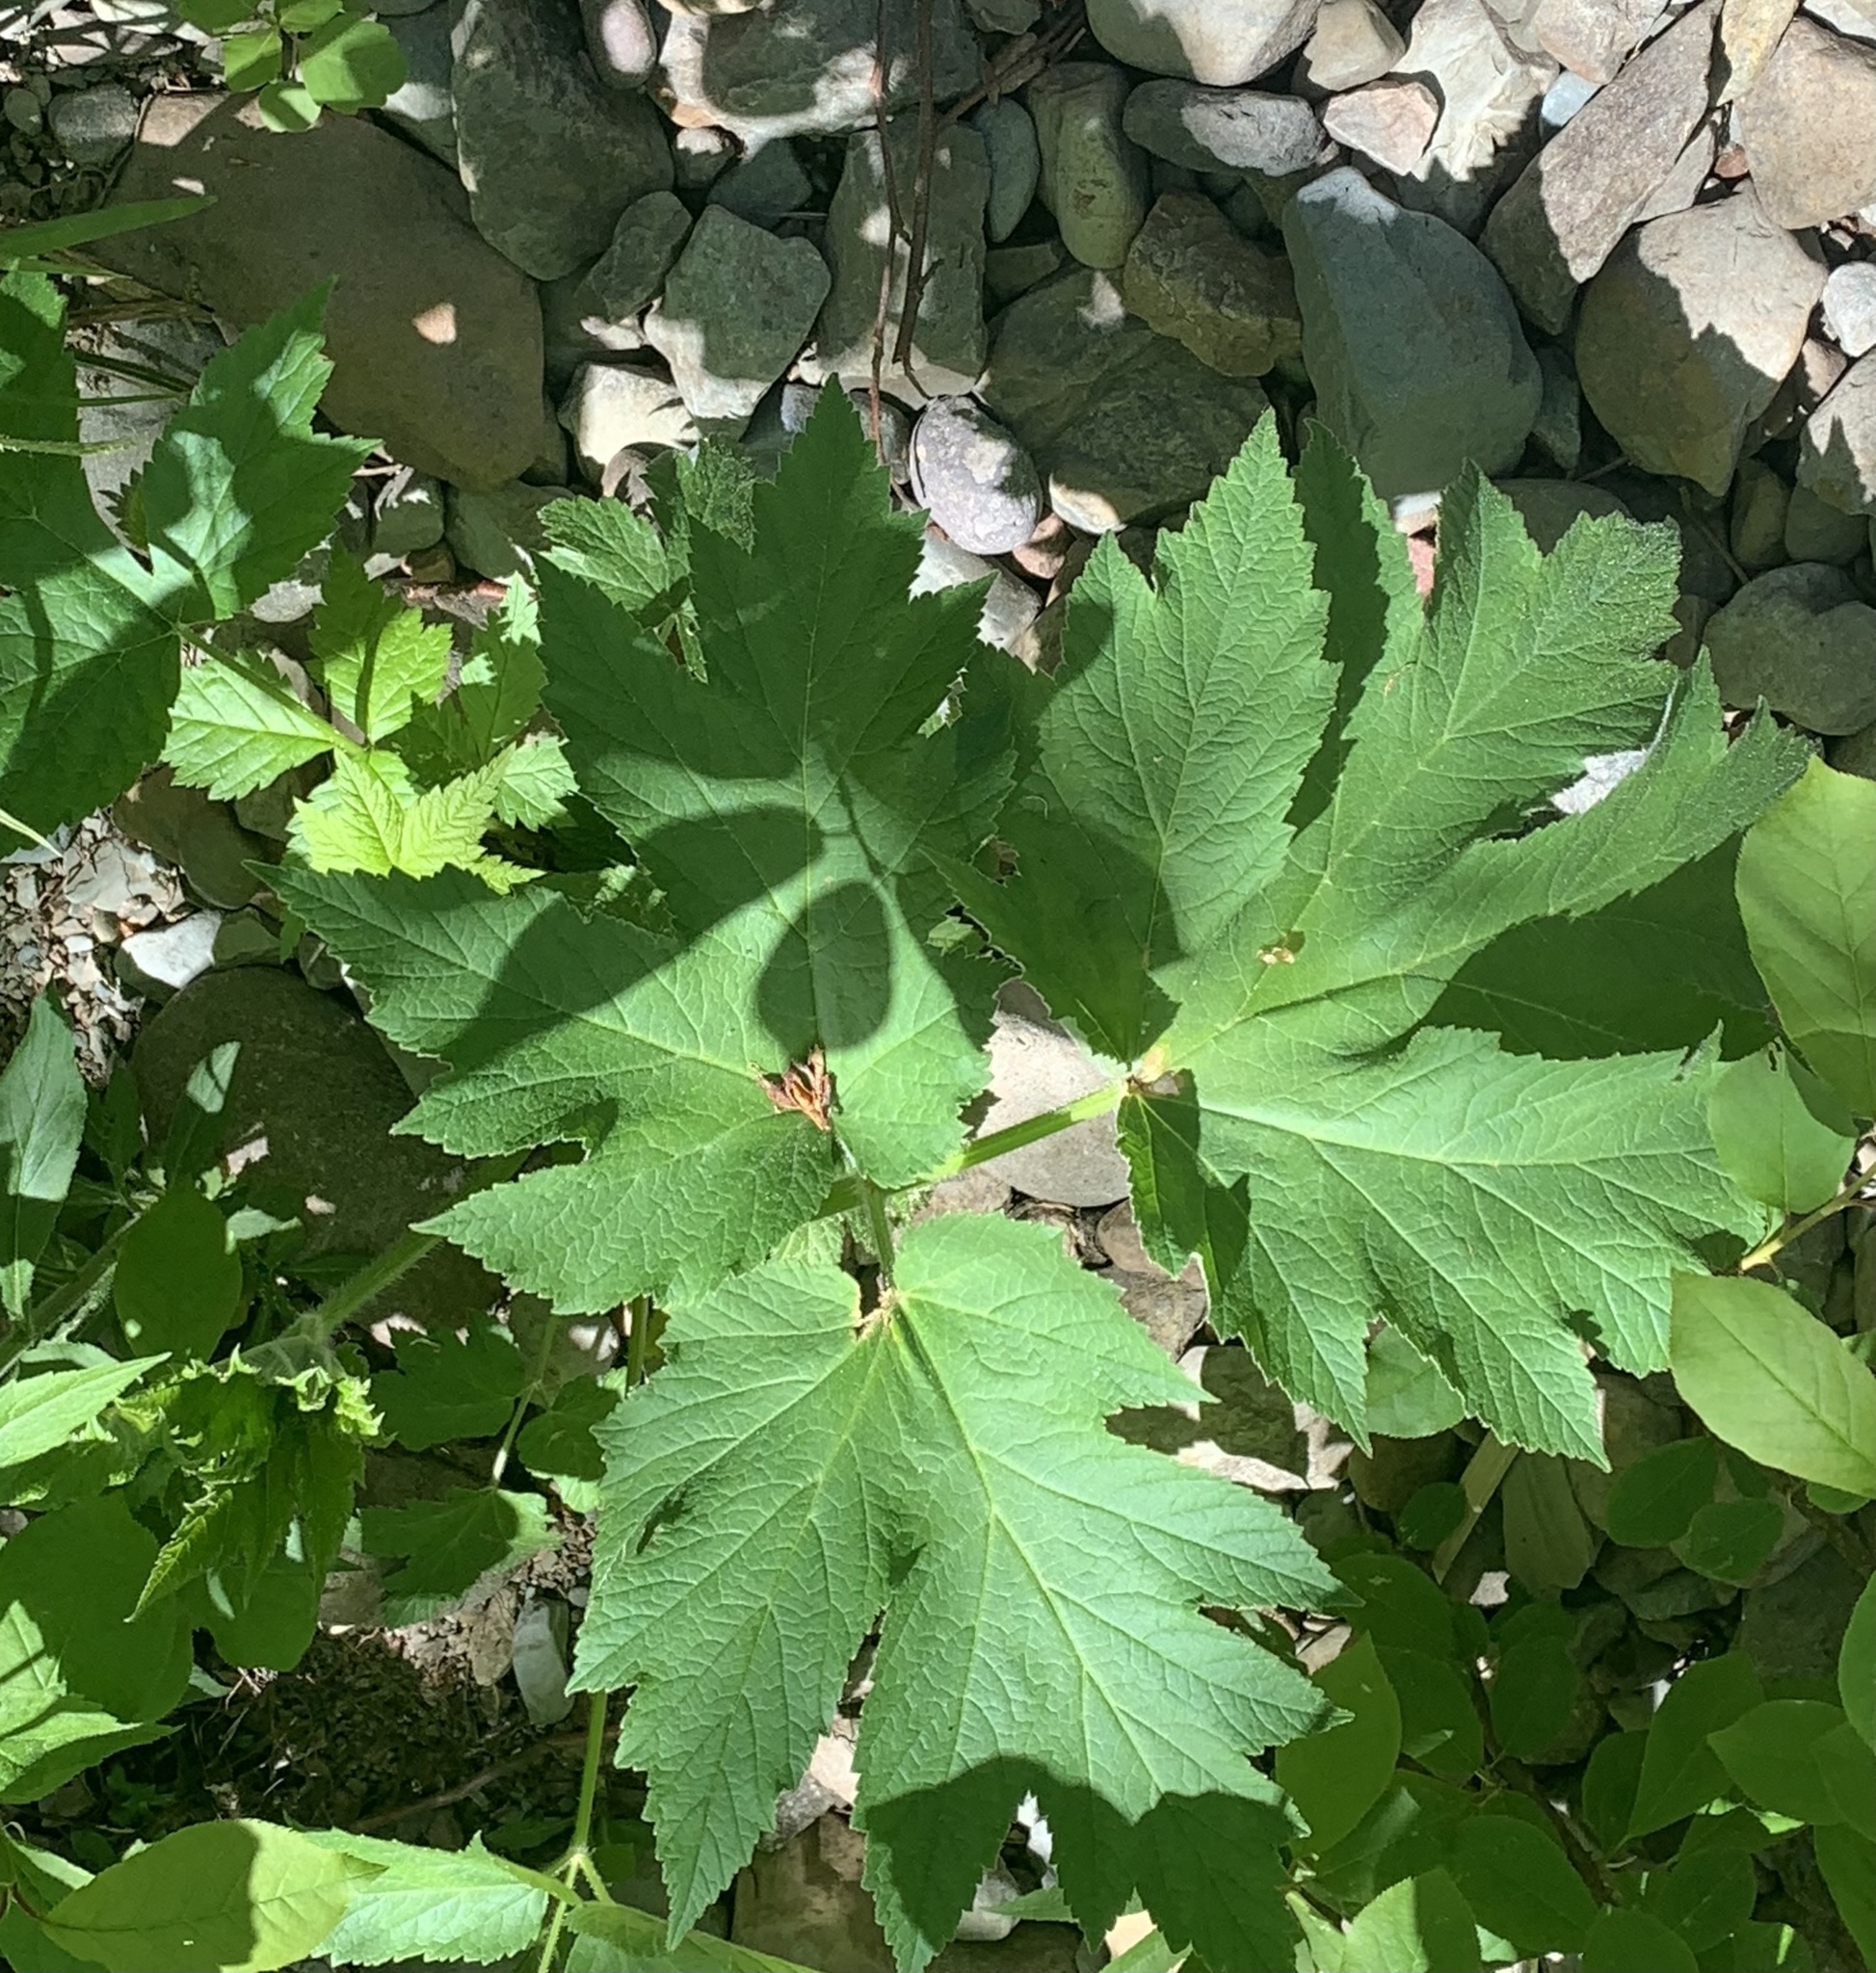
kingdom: Plantae
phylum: Tracheophyta
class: Magnoliopsida
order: Apiales
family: Apiaceae
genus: Heracleum
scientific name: Heracleum maximum
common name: American cow parsnip
